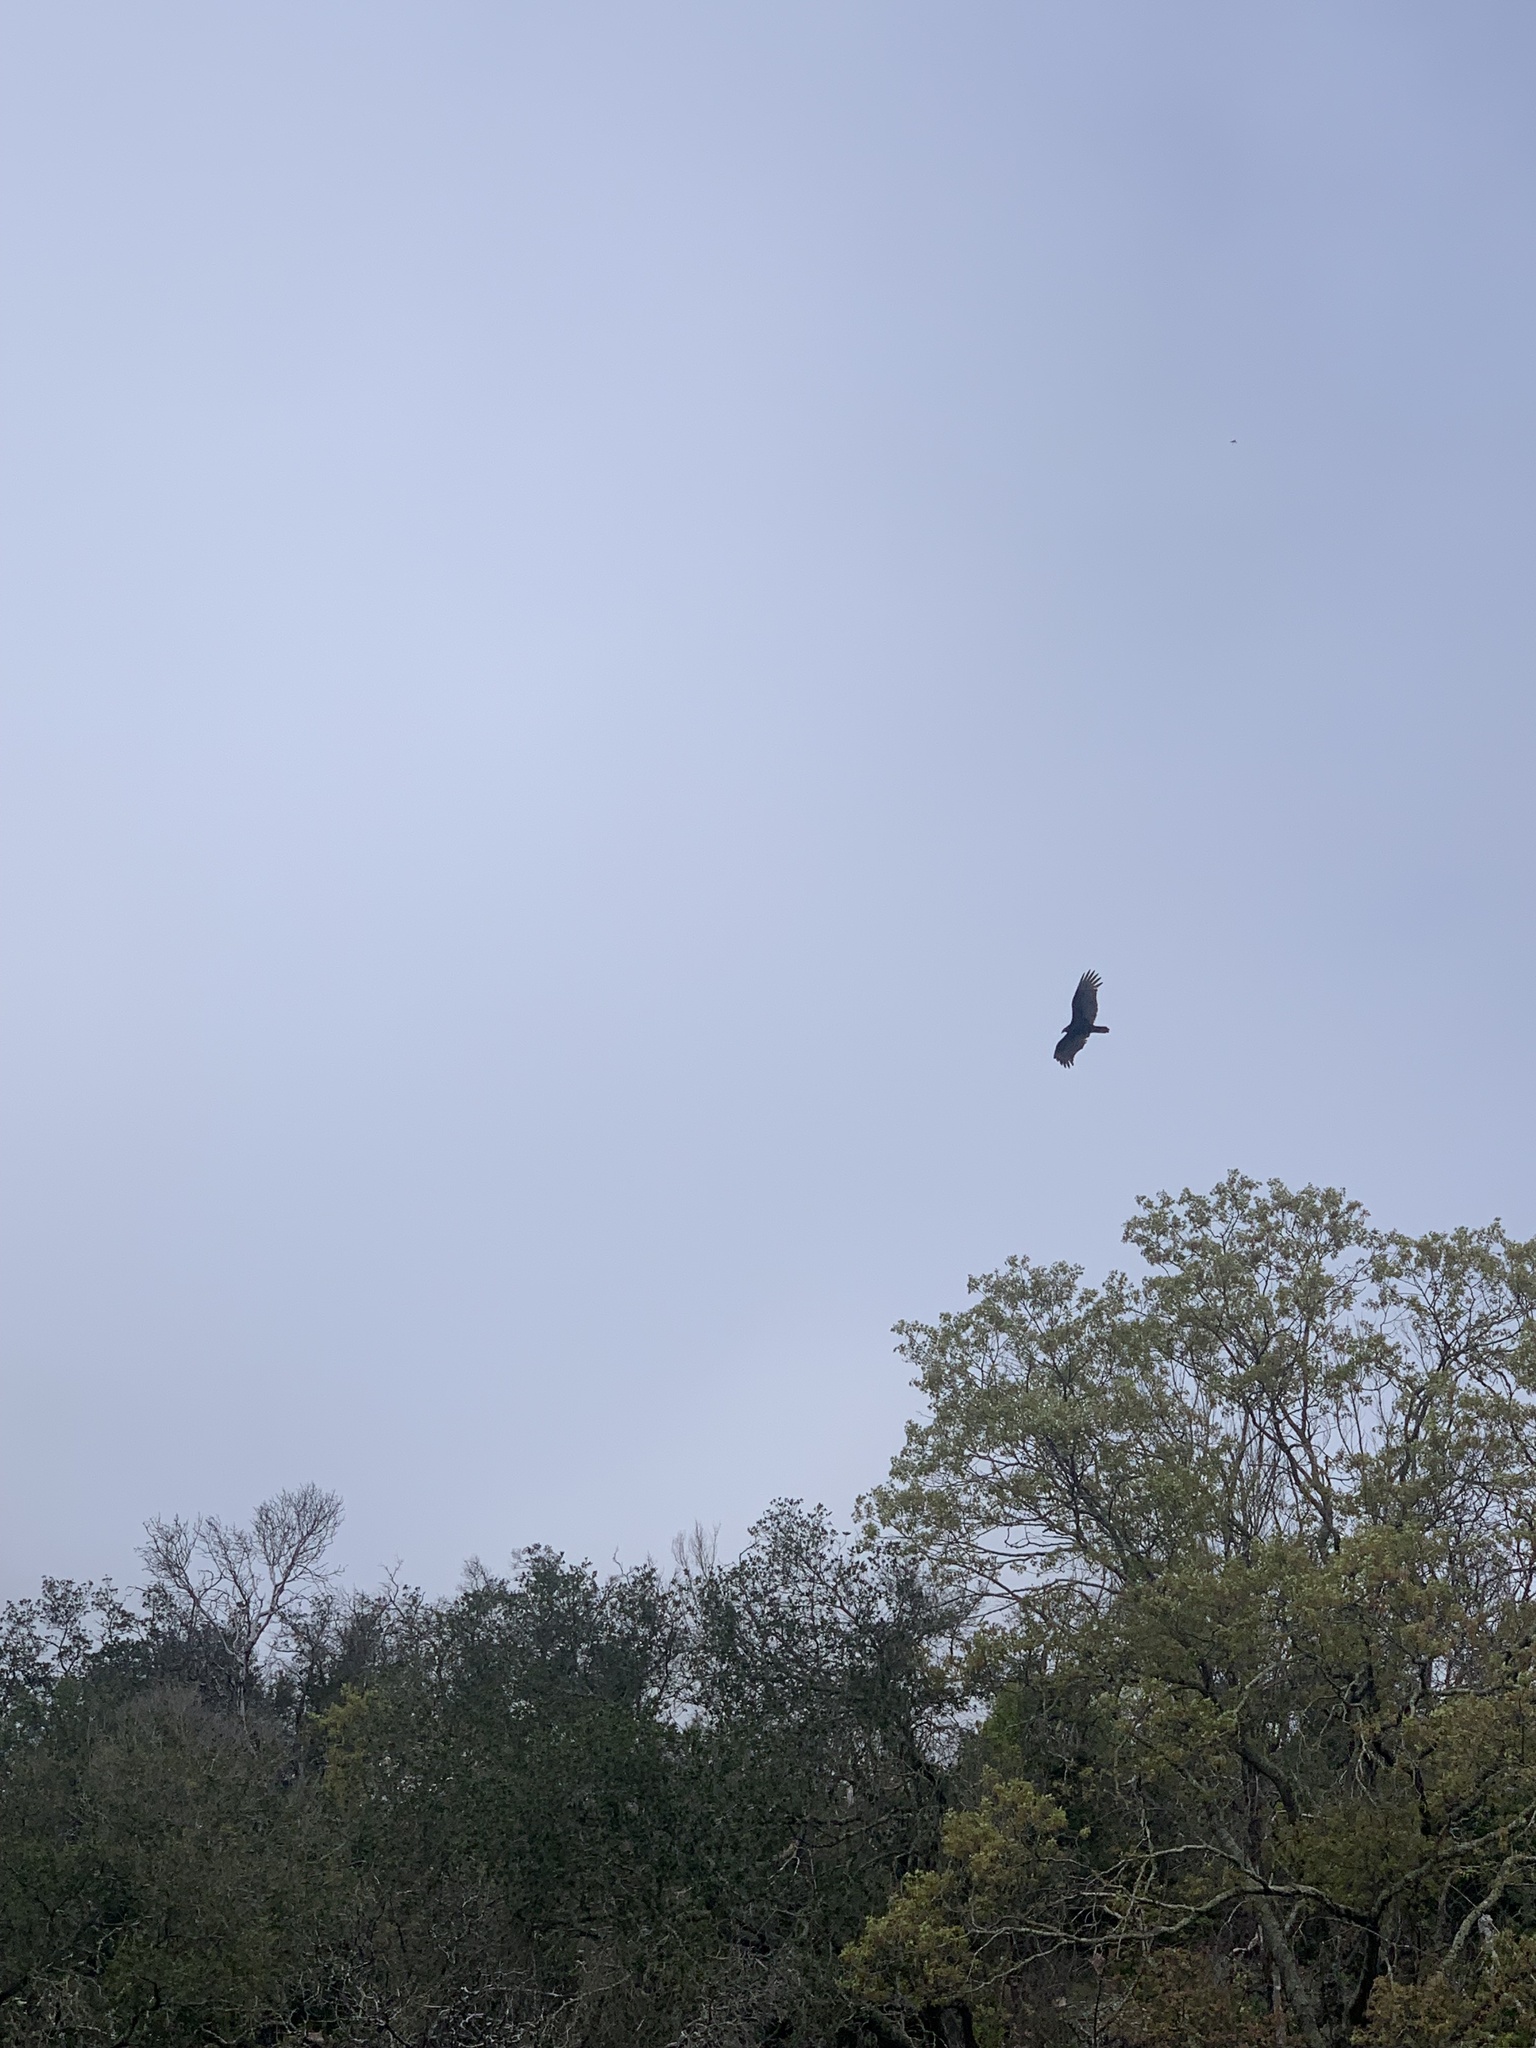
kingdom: Animalia
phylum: Chordata
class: Aves
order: Accipitriformes
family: Cathartidae
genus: Cathartes
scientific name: Cathartes aura
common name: Turkey vulture
